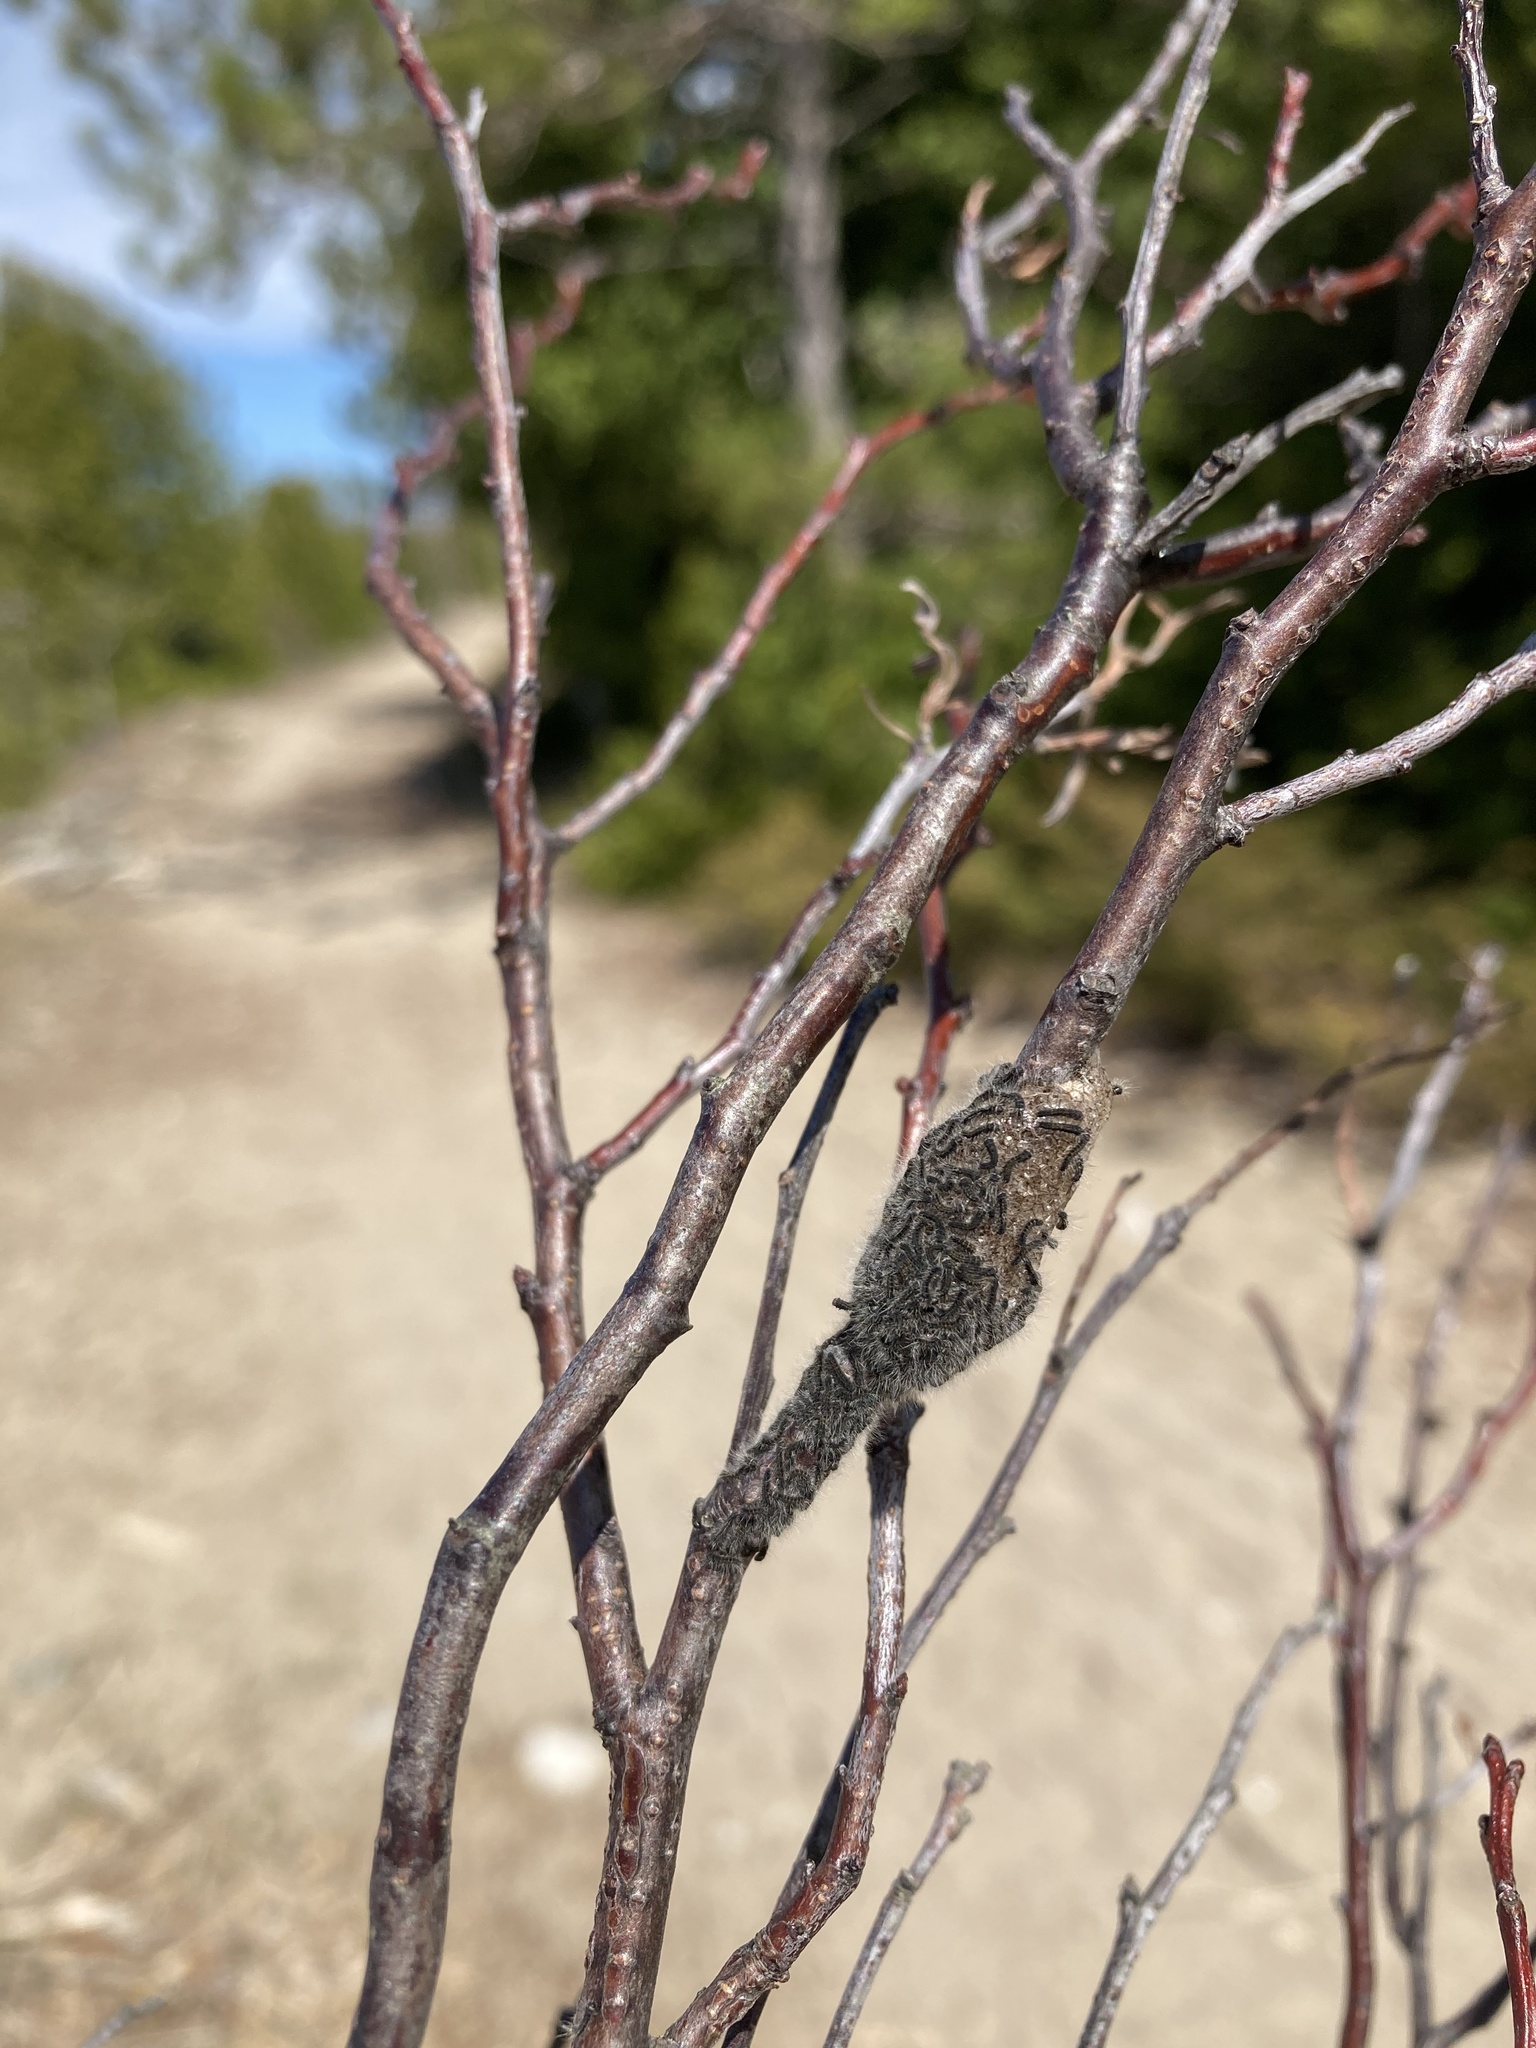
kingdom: Animalia
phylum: Arthropoda
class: Insecta
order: Lepidoptera
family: Lasiocampidae
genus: Malacosoma
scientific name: Malacosoma americana
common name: Eastern tent caterpillar moth
